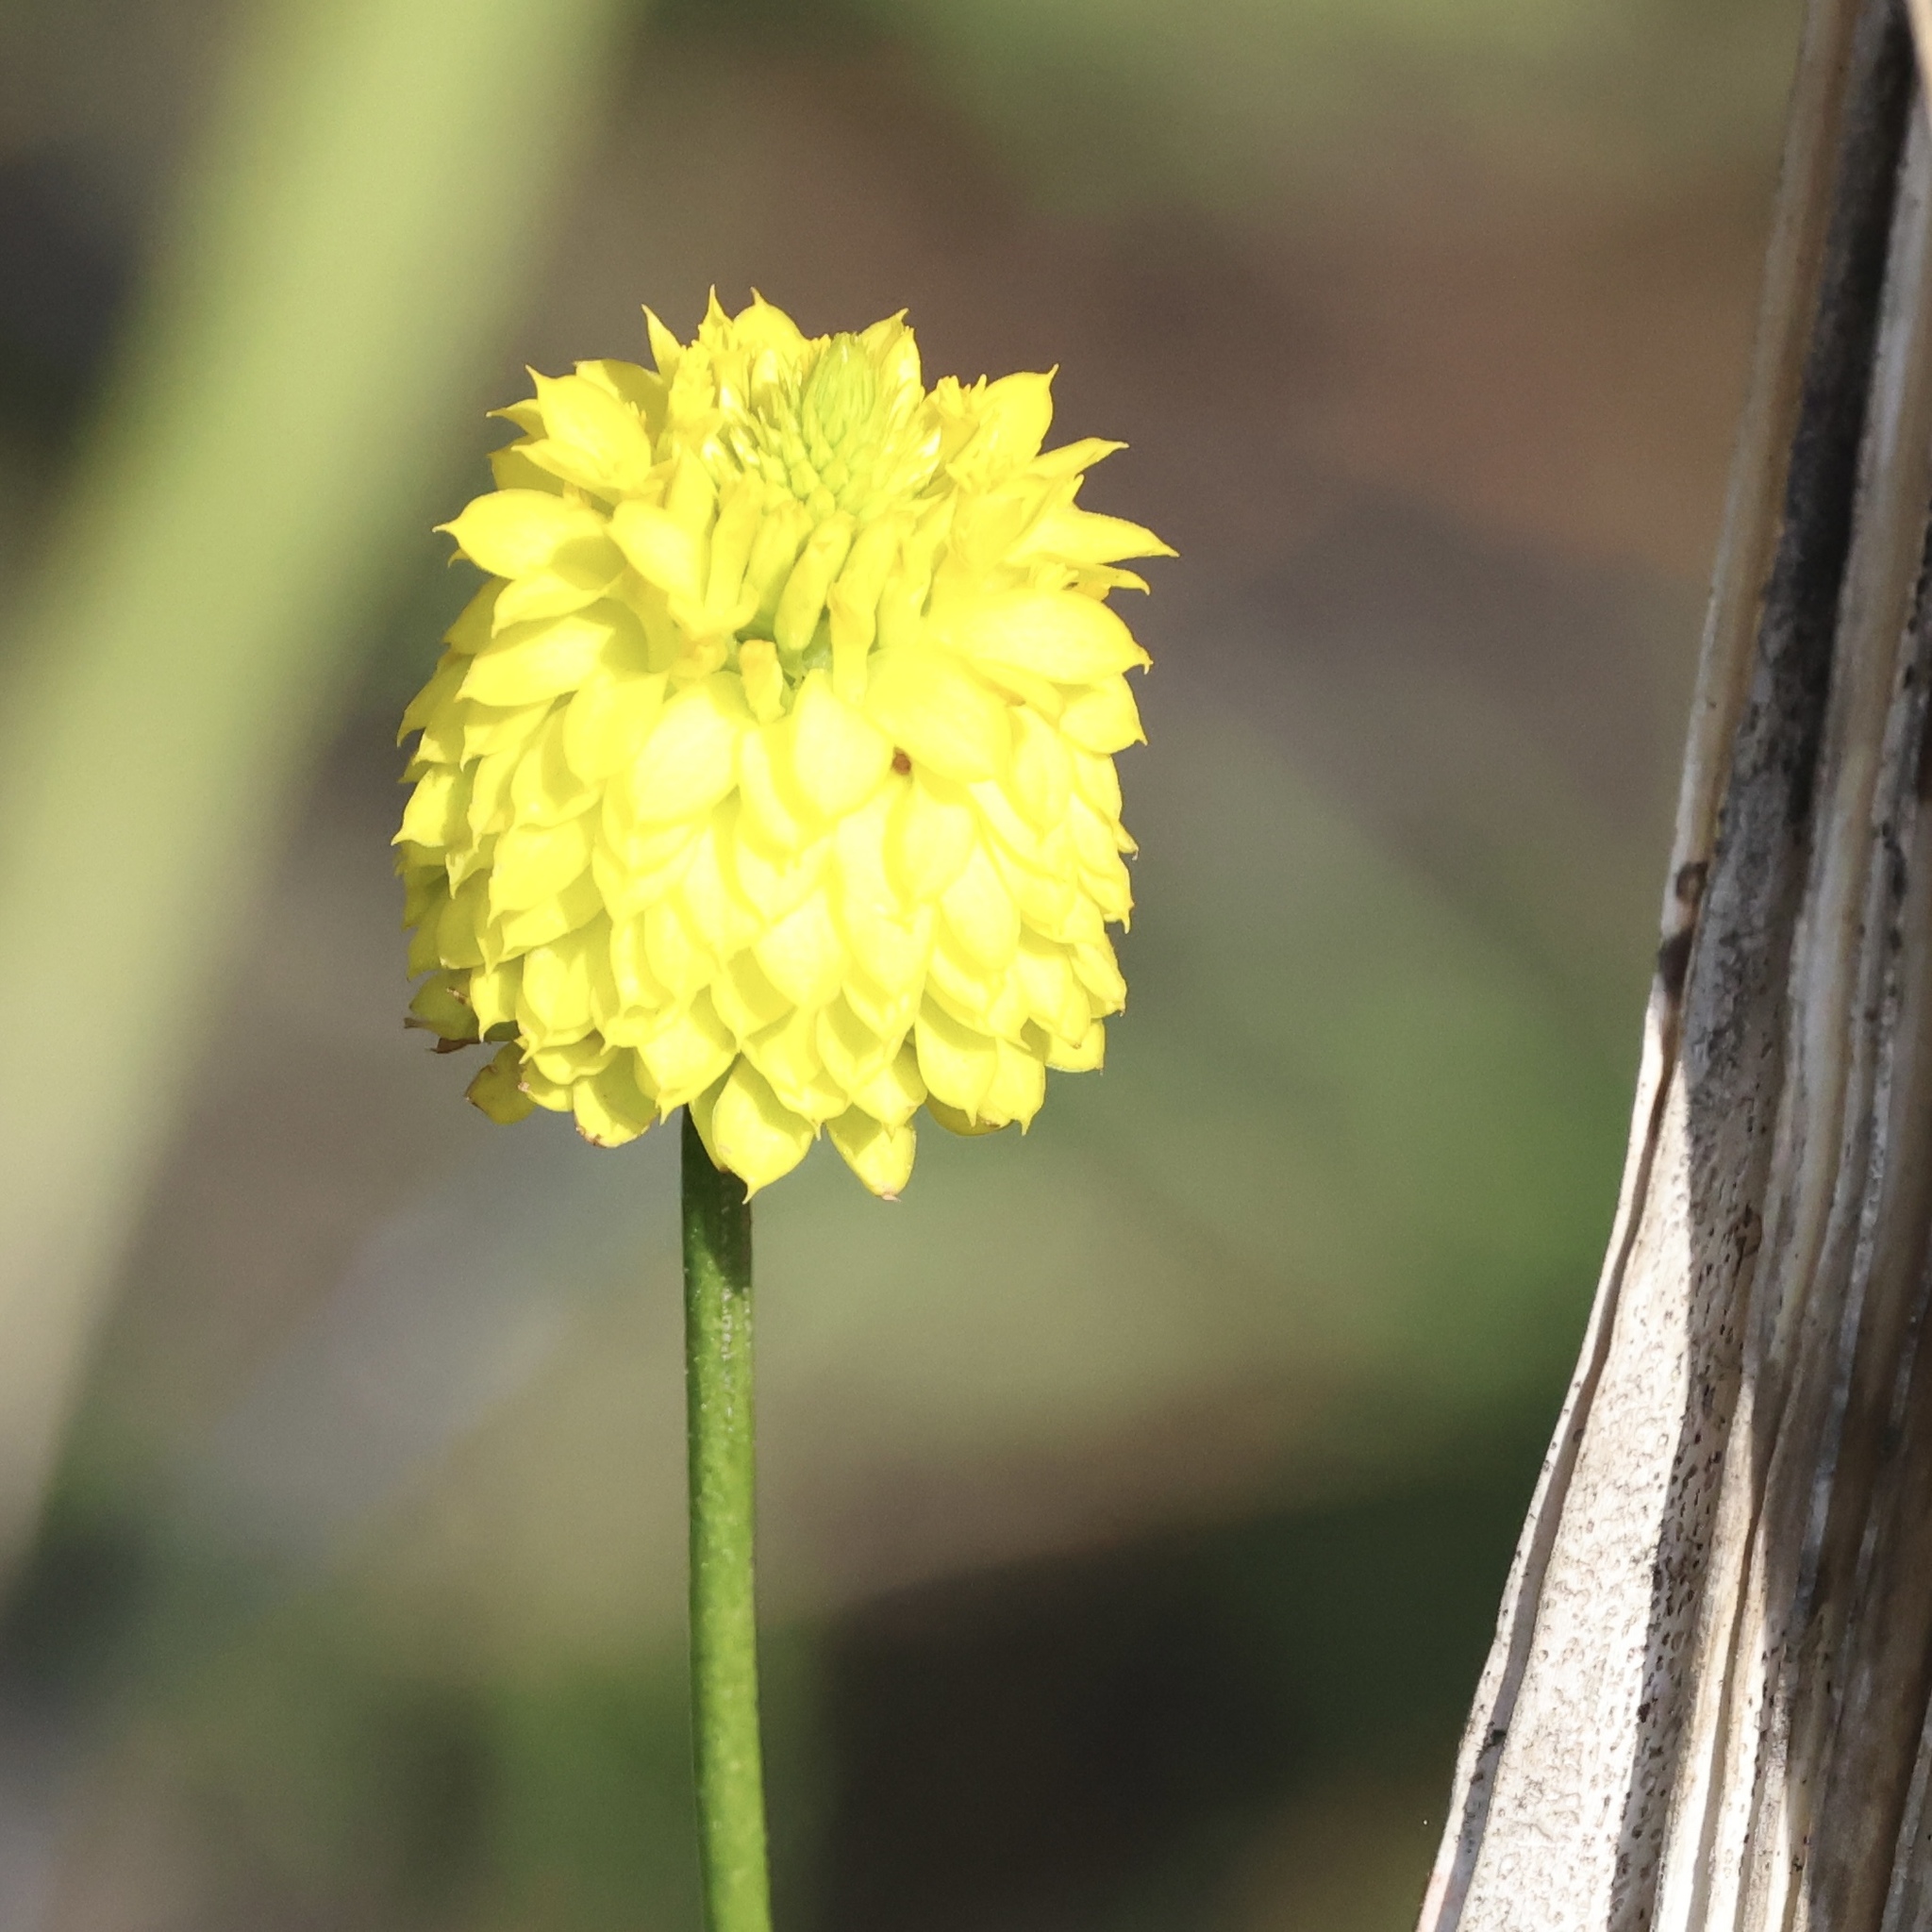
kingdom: Plantae
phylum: Tracheophyta
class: Magnoliopsida
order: Fabales
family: Polygalaceae
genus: Polygala
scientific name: Polygala rugelii
